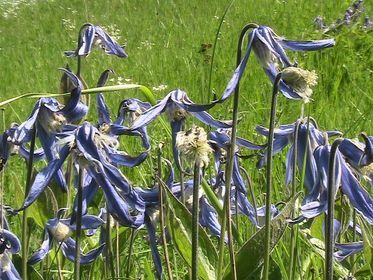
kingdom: Plantae
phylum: Tracheophyta
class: Magnoliopsida
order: Ranunculales
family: Ranunculaceae
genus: Clematis
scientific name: Clematis integrifolia
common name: Solitary clematis
